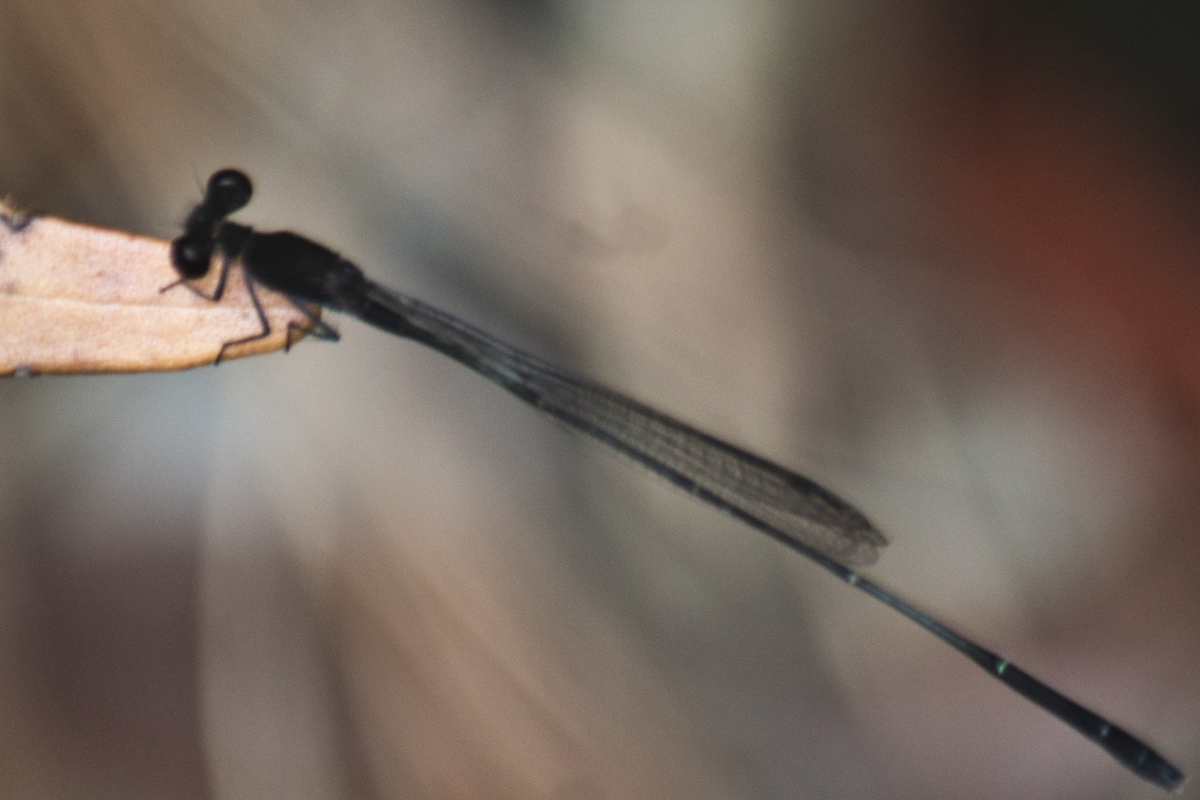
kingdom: Animalia
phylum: Arthropoda
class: Insecta
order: Odonata
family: Platycnemididae
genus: Prodasineura
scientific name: Prodasineura autumnalis
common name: Black threadtail
